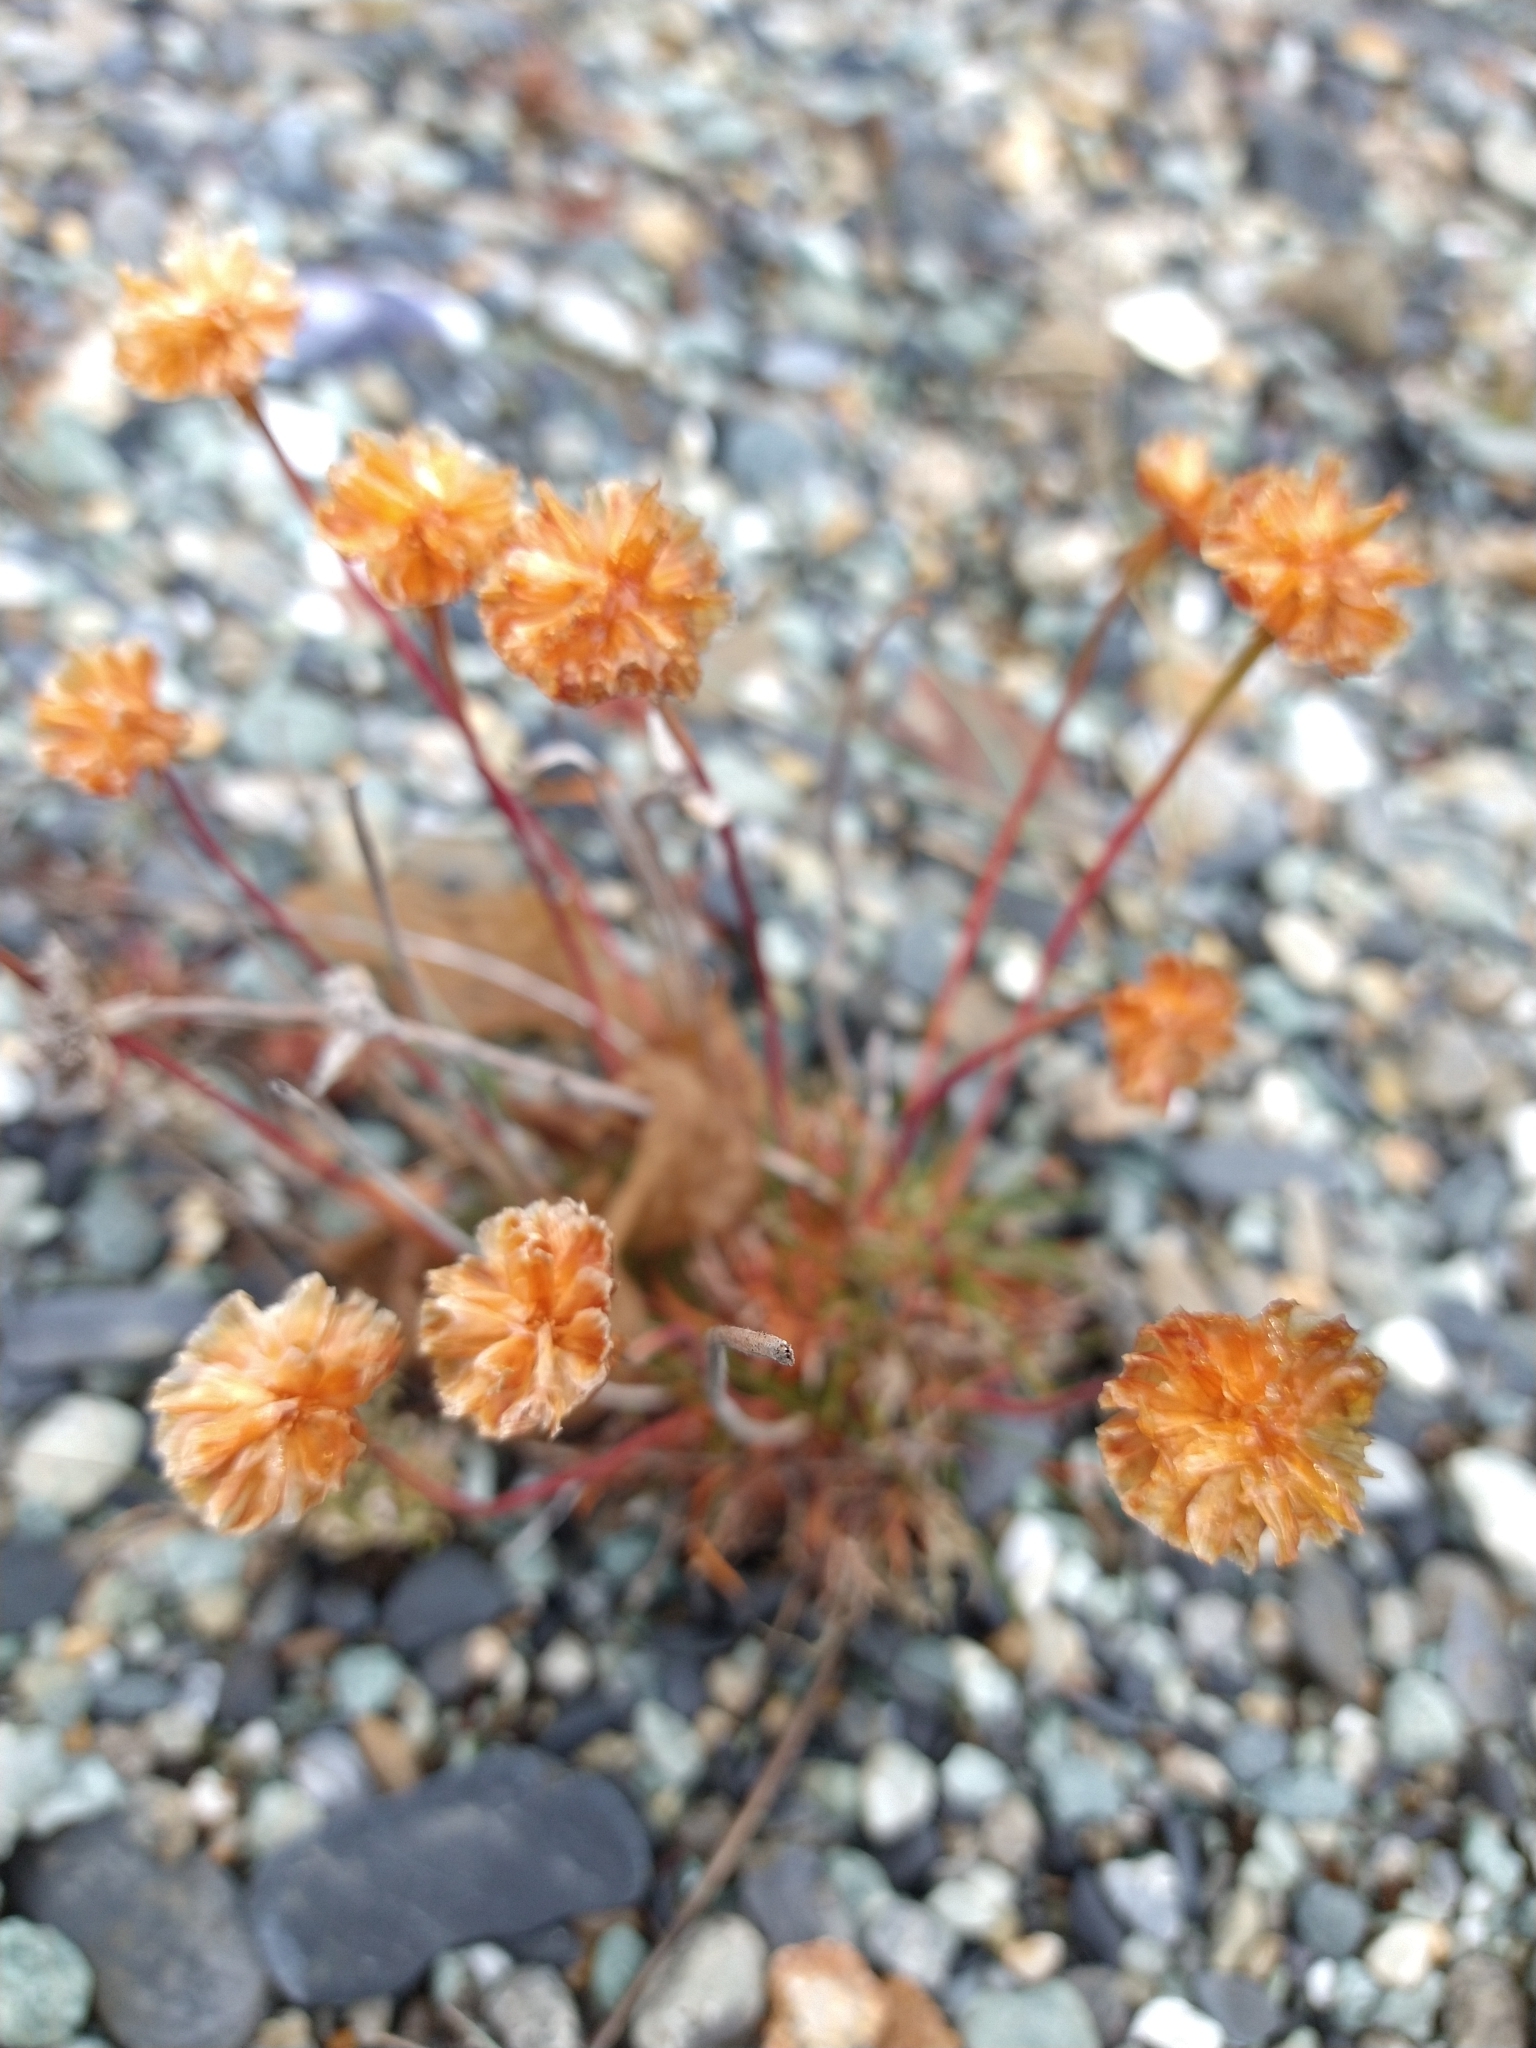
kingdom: Plantae
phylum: Tracheophyta
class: Magnoliopsida
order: Caryophyllales
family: Plumbaginaceae
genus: Armeria
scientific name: Armeria curvifolia
